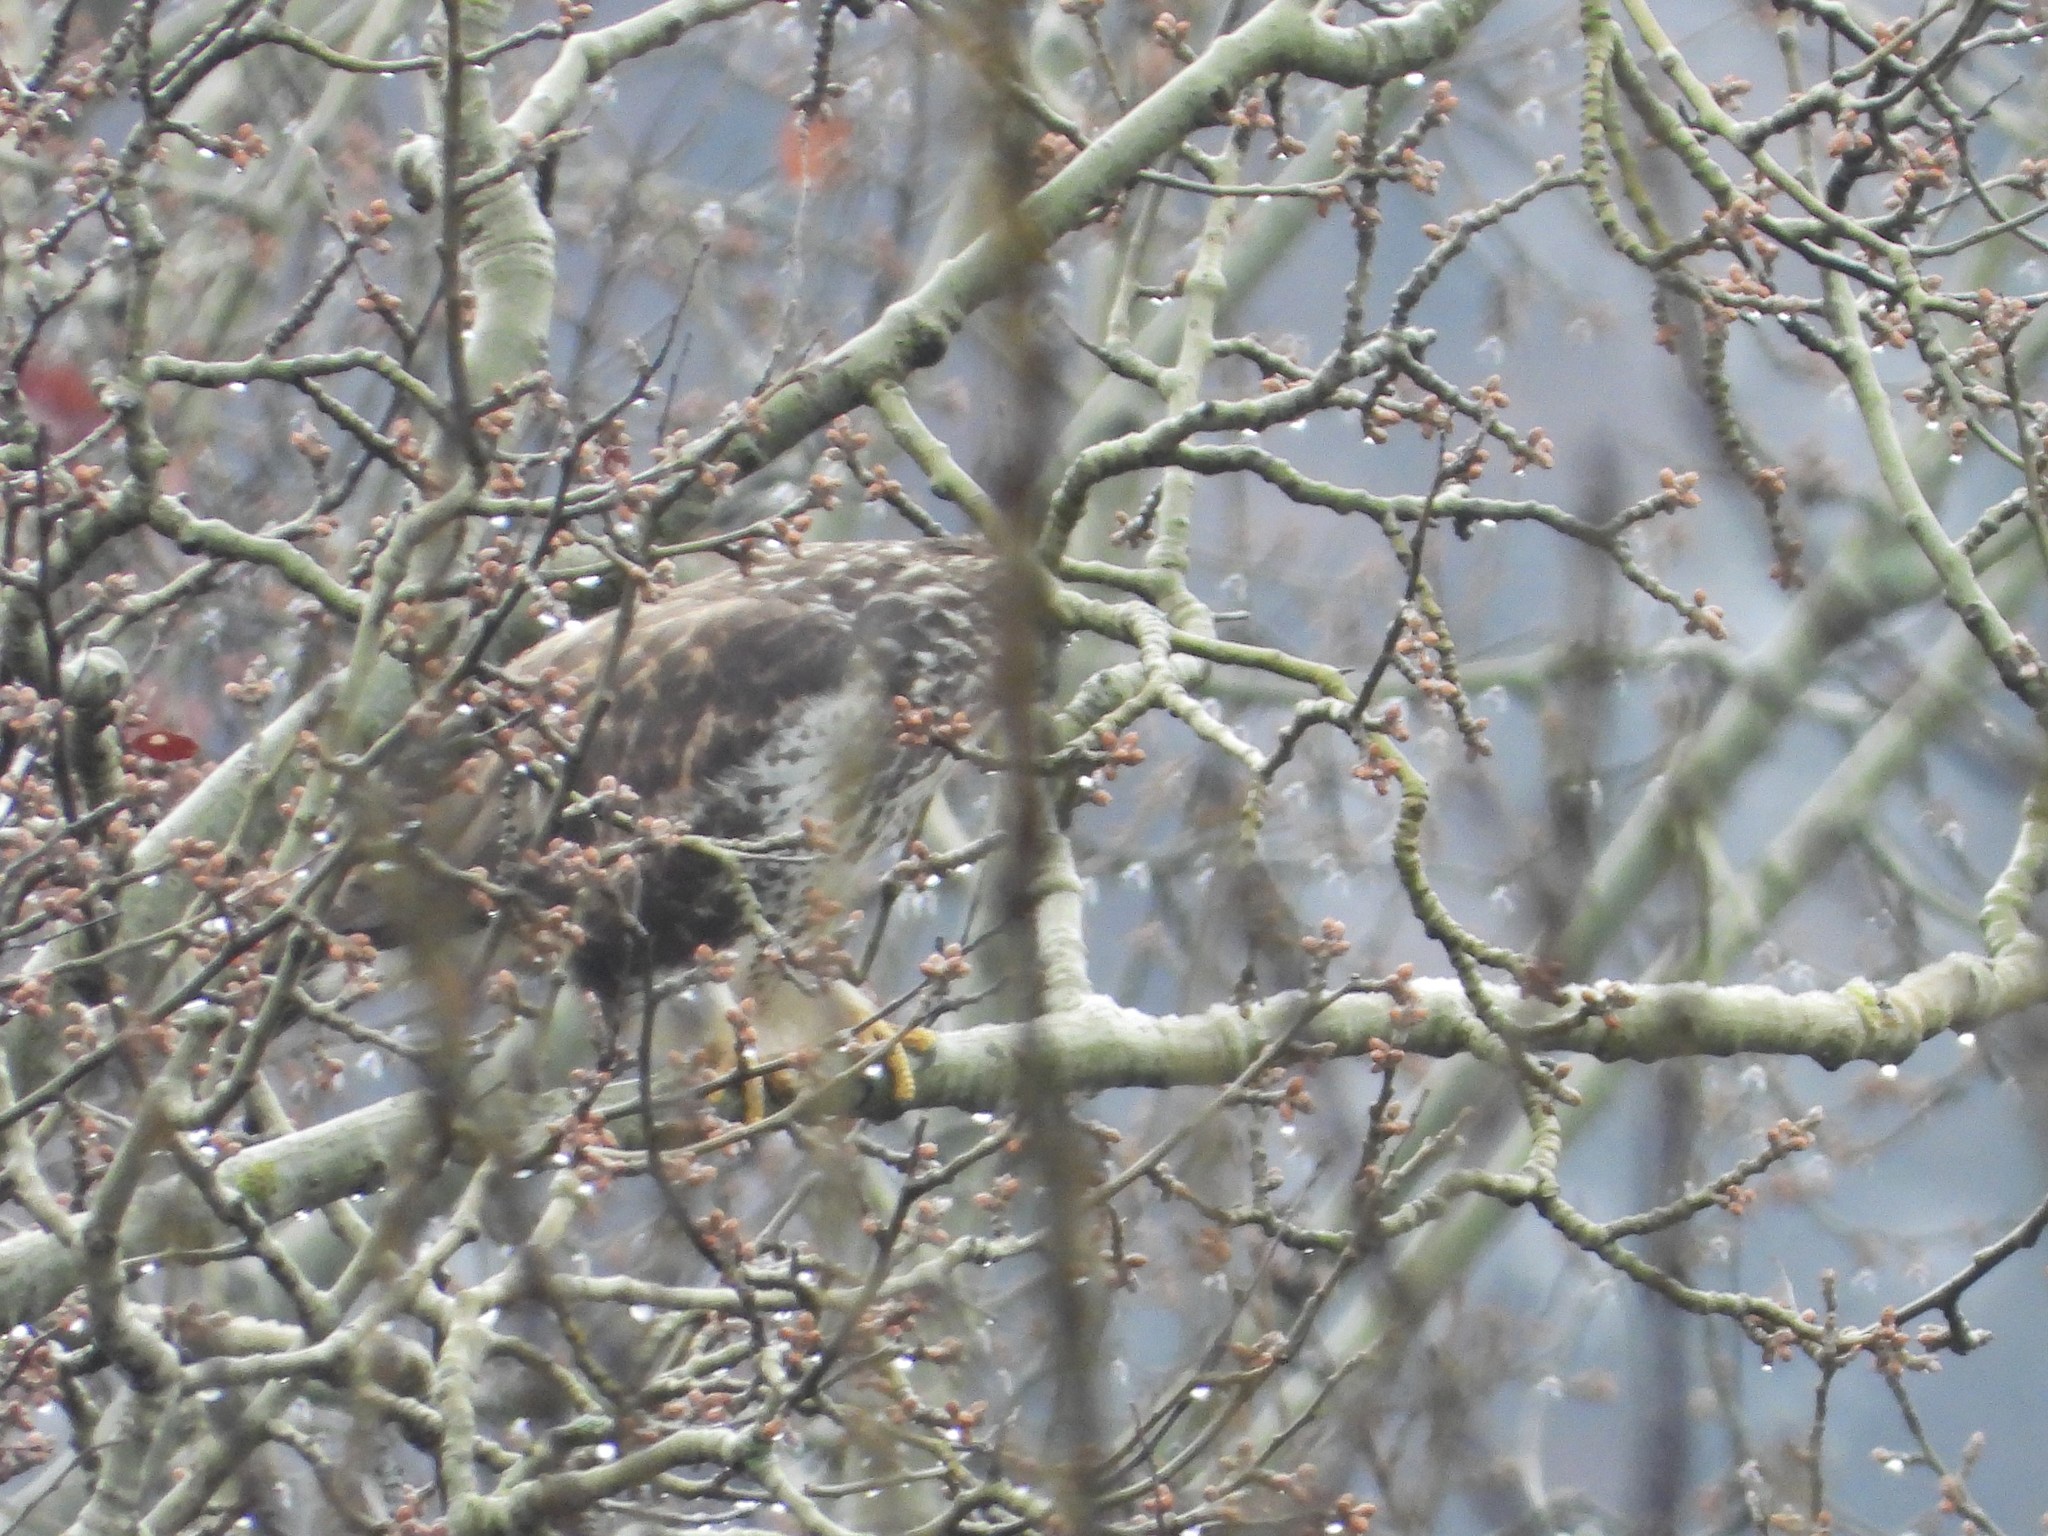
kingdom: Animalia
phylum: Chordata
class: Aves
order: Accipitriformes
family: Accipitridae
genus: Buteo
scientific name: Buteo buteo
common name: Common buzzard
